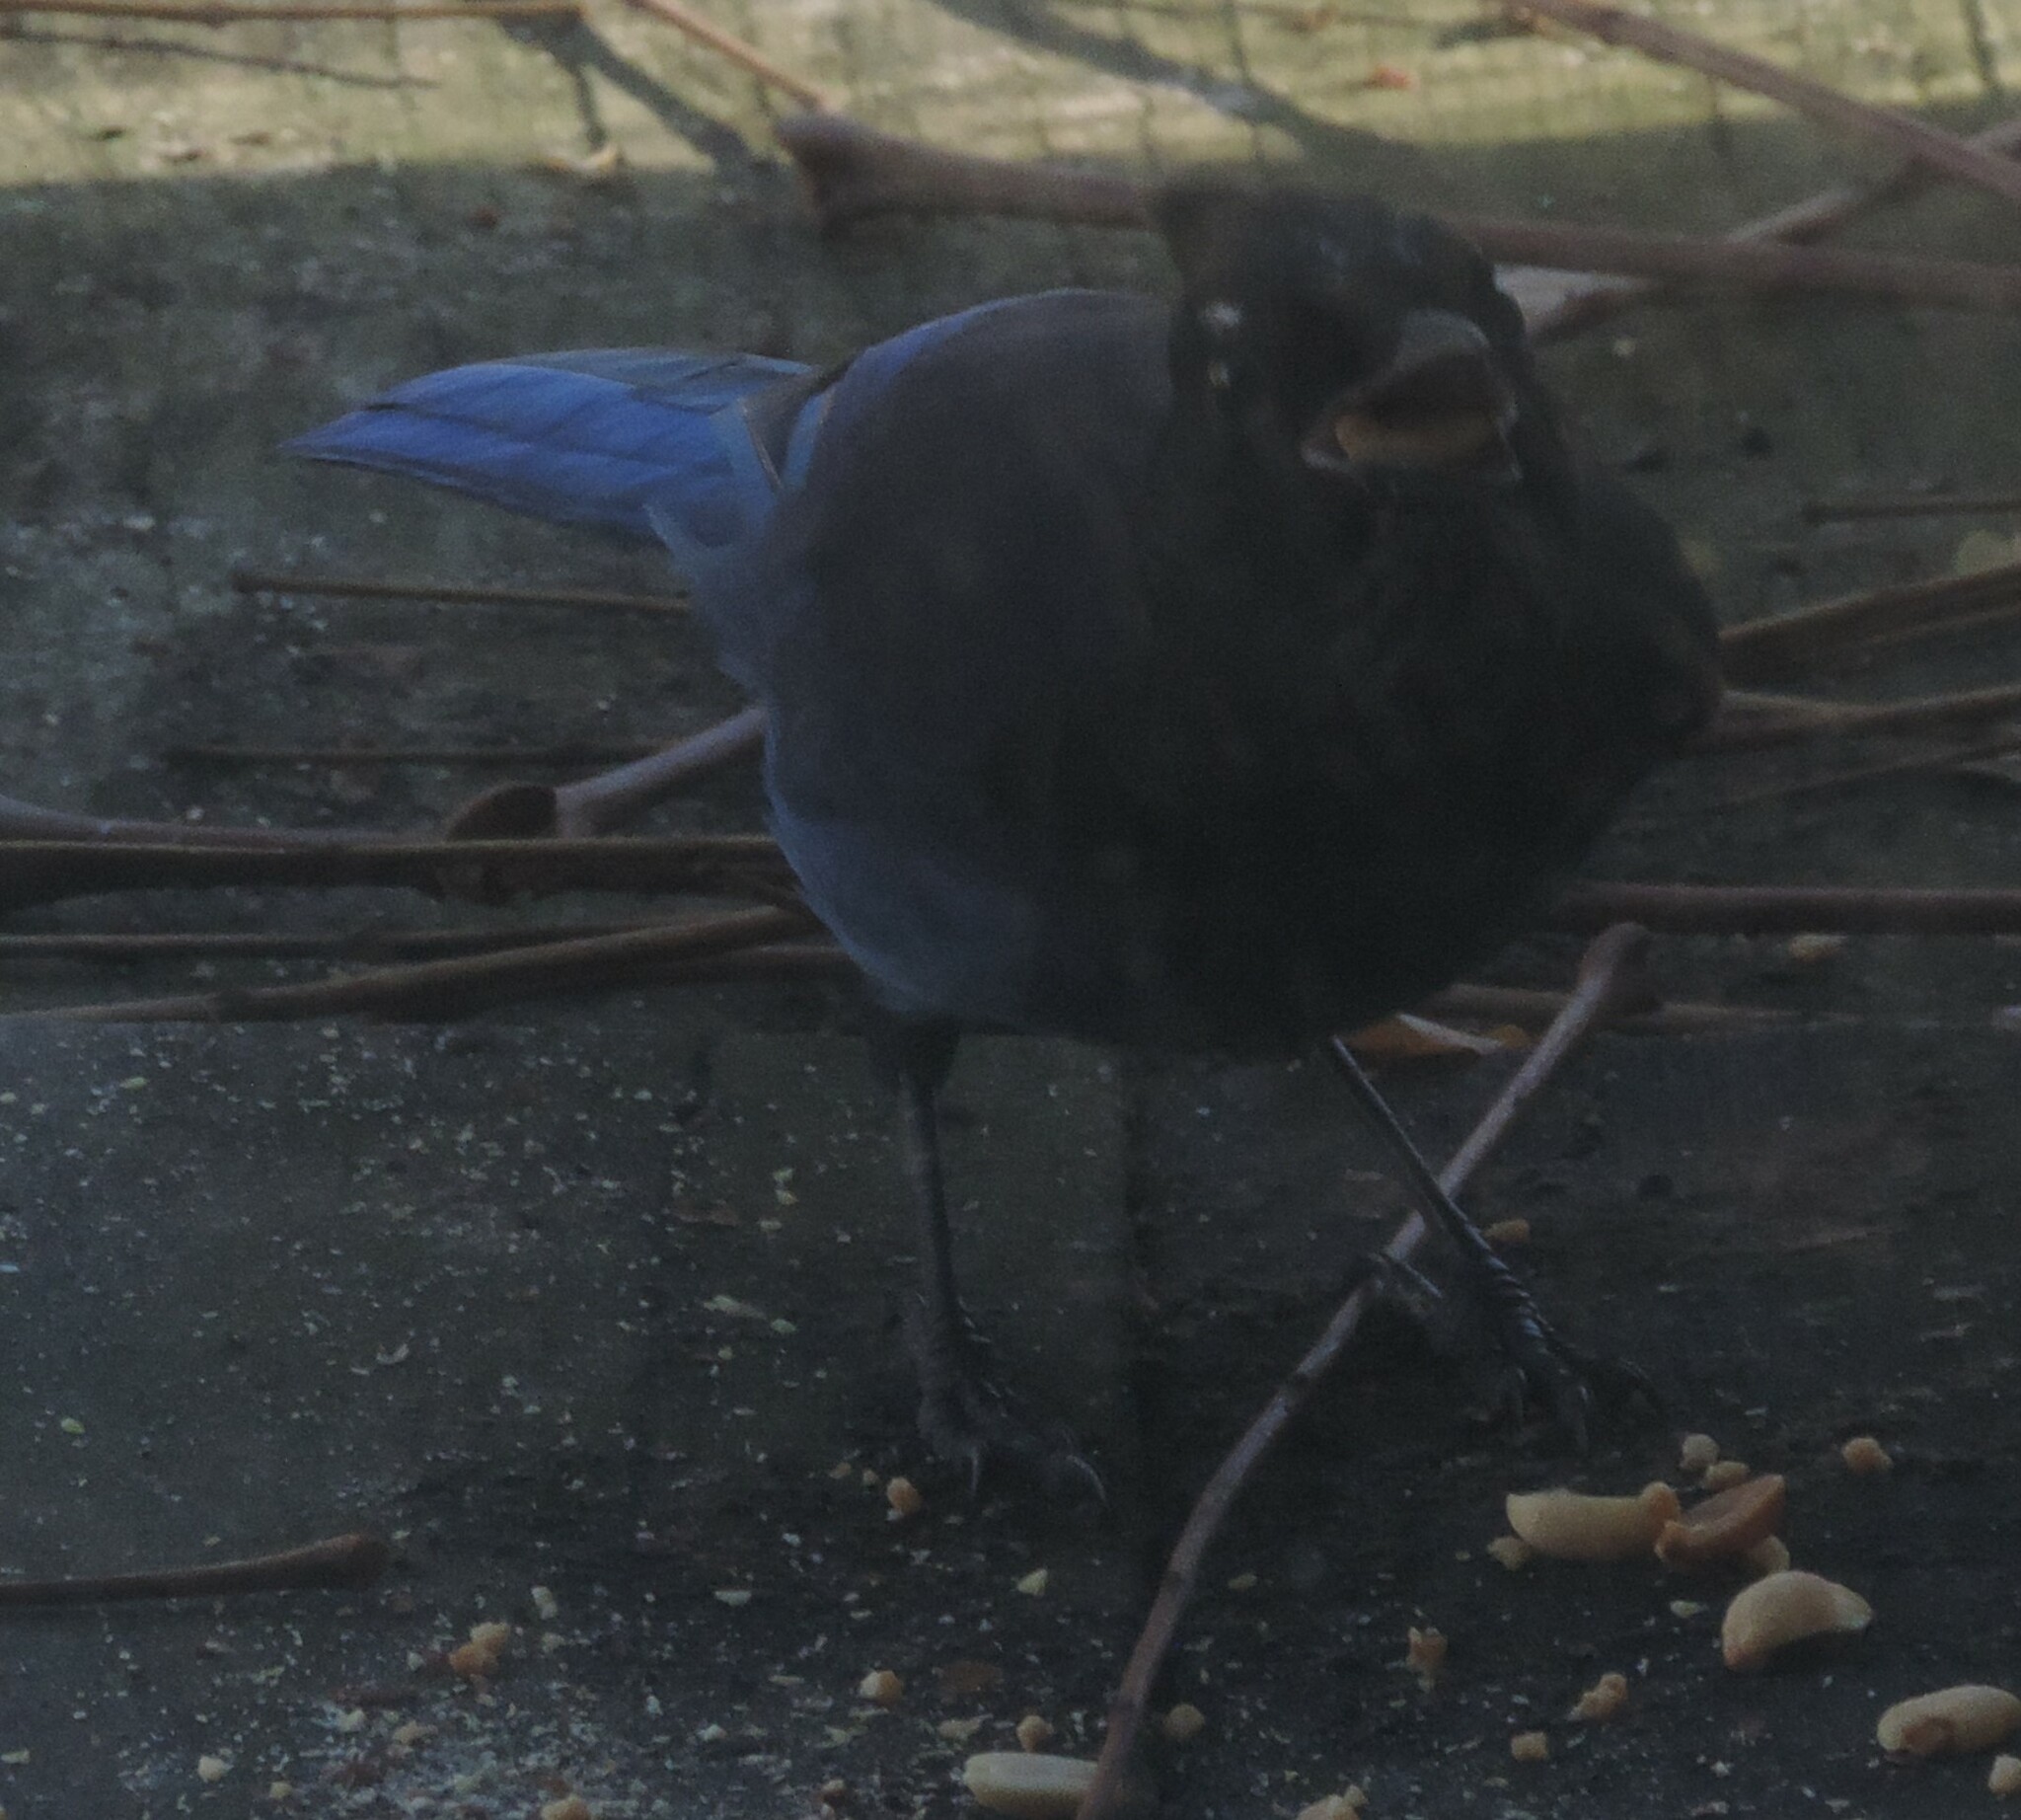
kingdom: Animalia
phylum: Chordata
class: Aves
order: Passeriformes
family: Corvidae
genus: Cyanocitta
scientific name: Cyanocitta stelleri
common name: Steller's jay
